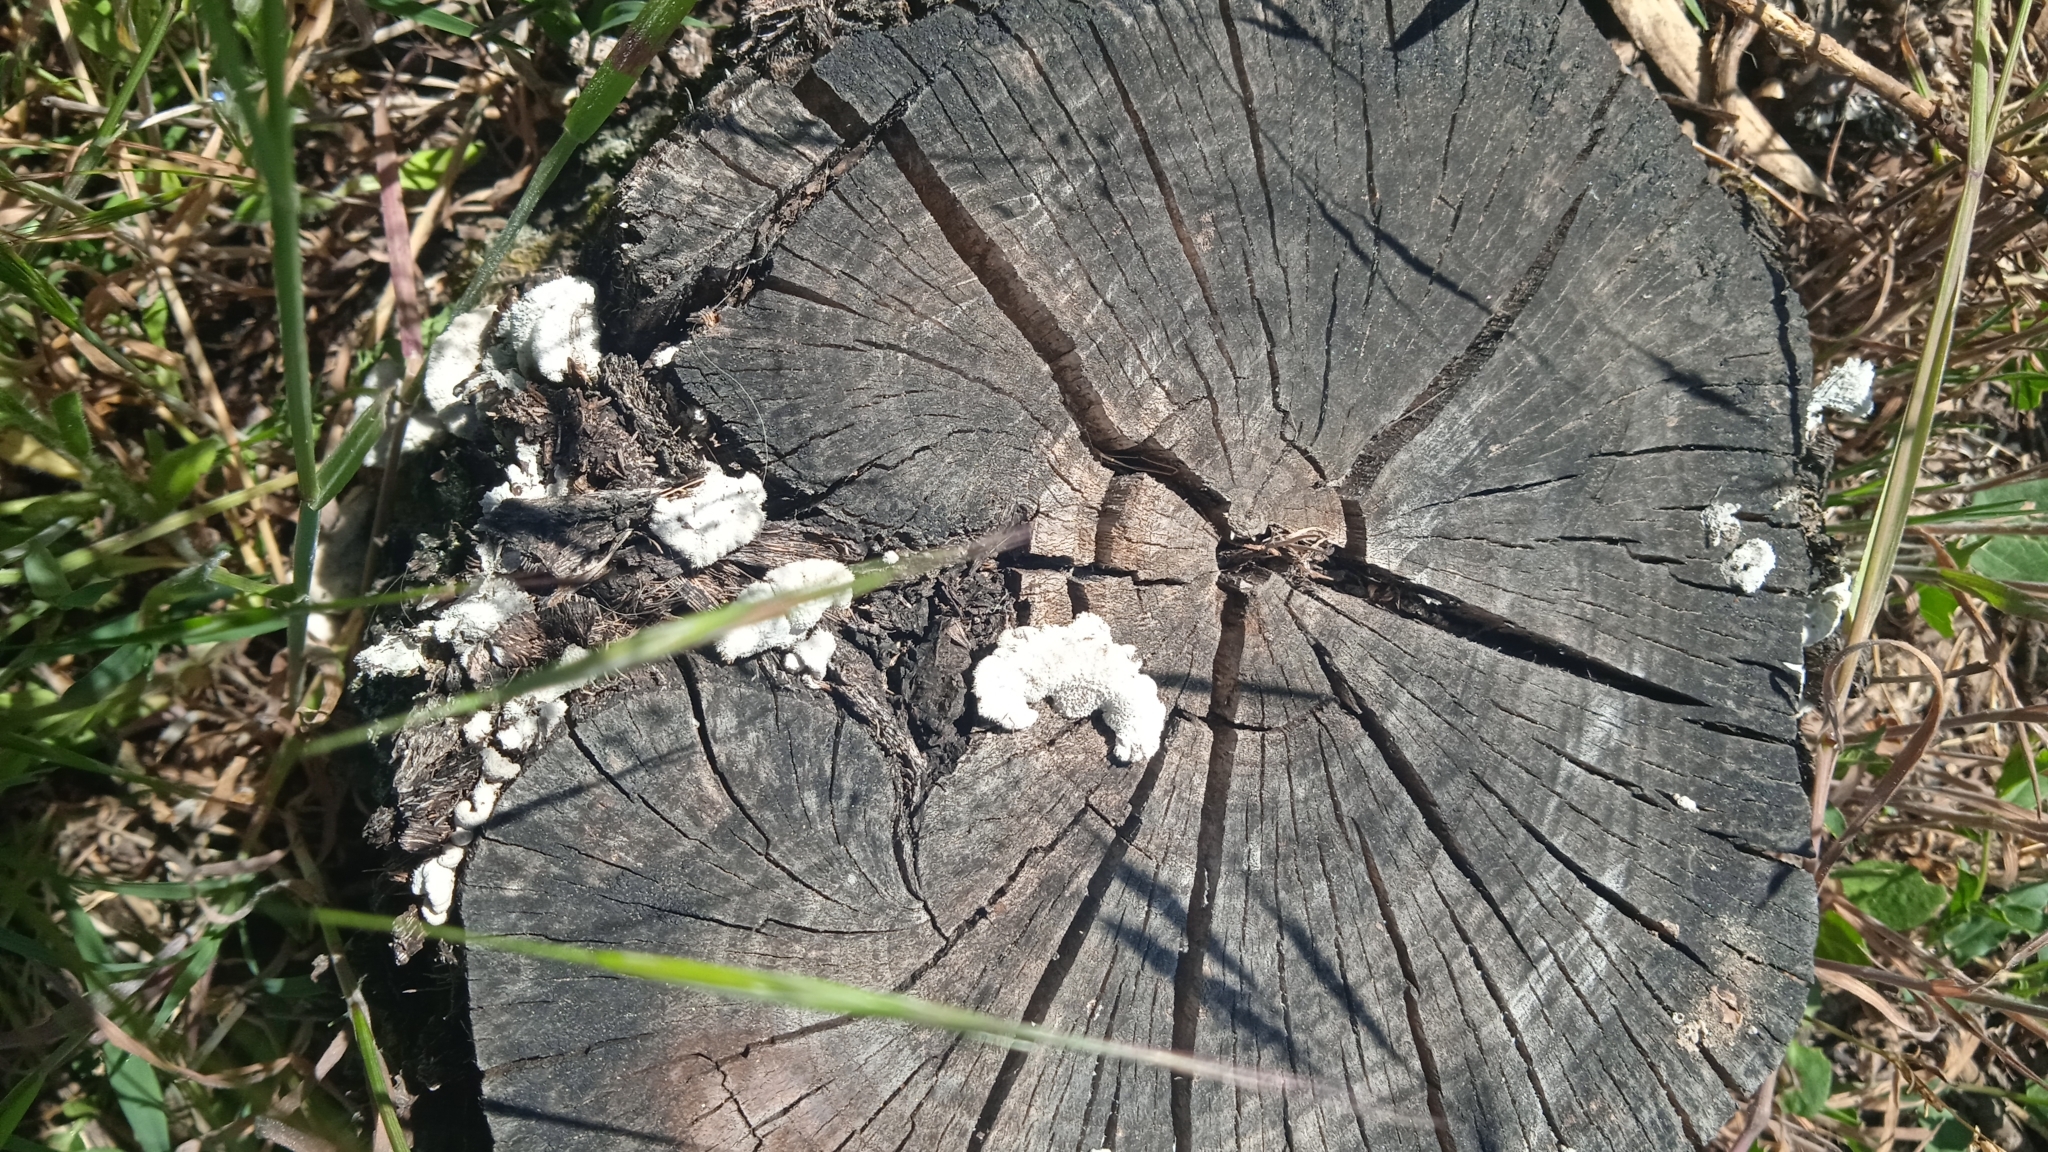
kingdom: Fungi
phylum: Basidiomycota
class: Agaricomycetes
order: Agaricales
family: Schizophyllaceae
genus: Schizophyllum
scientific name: Schizophyllum commune
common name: Common porecrust
